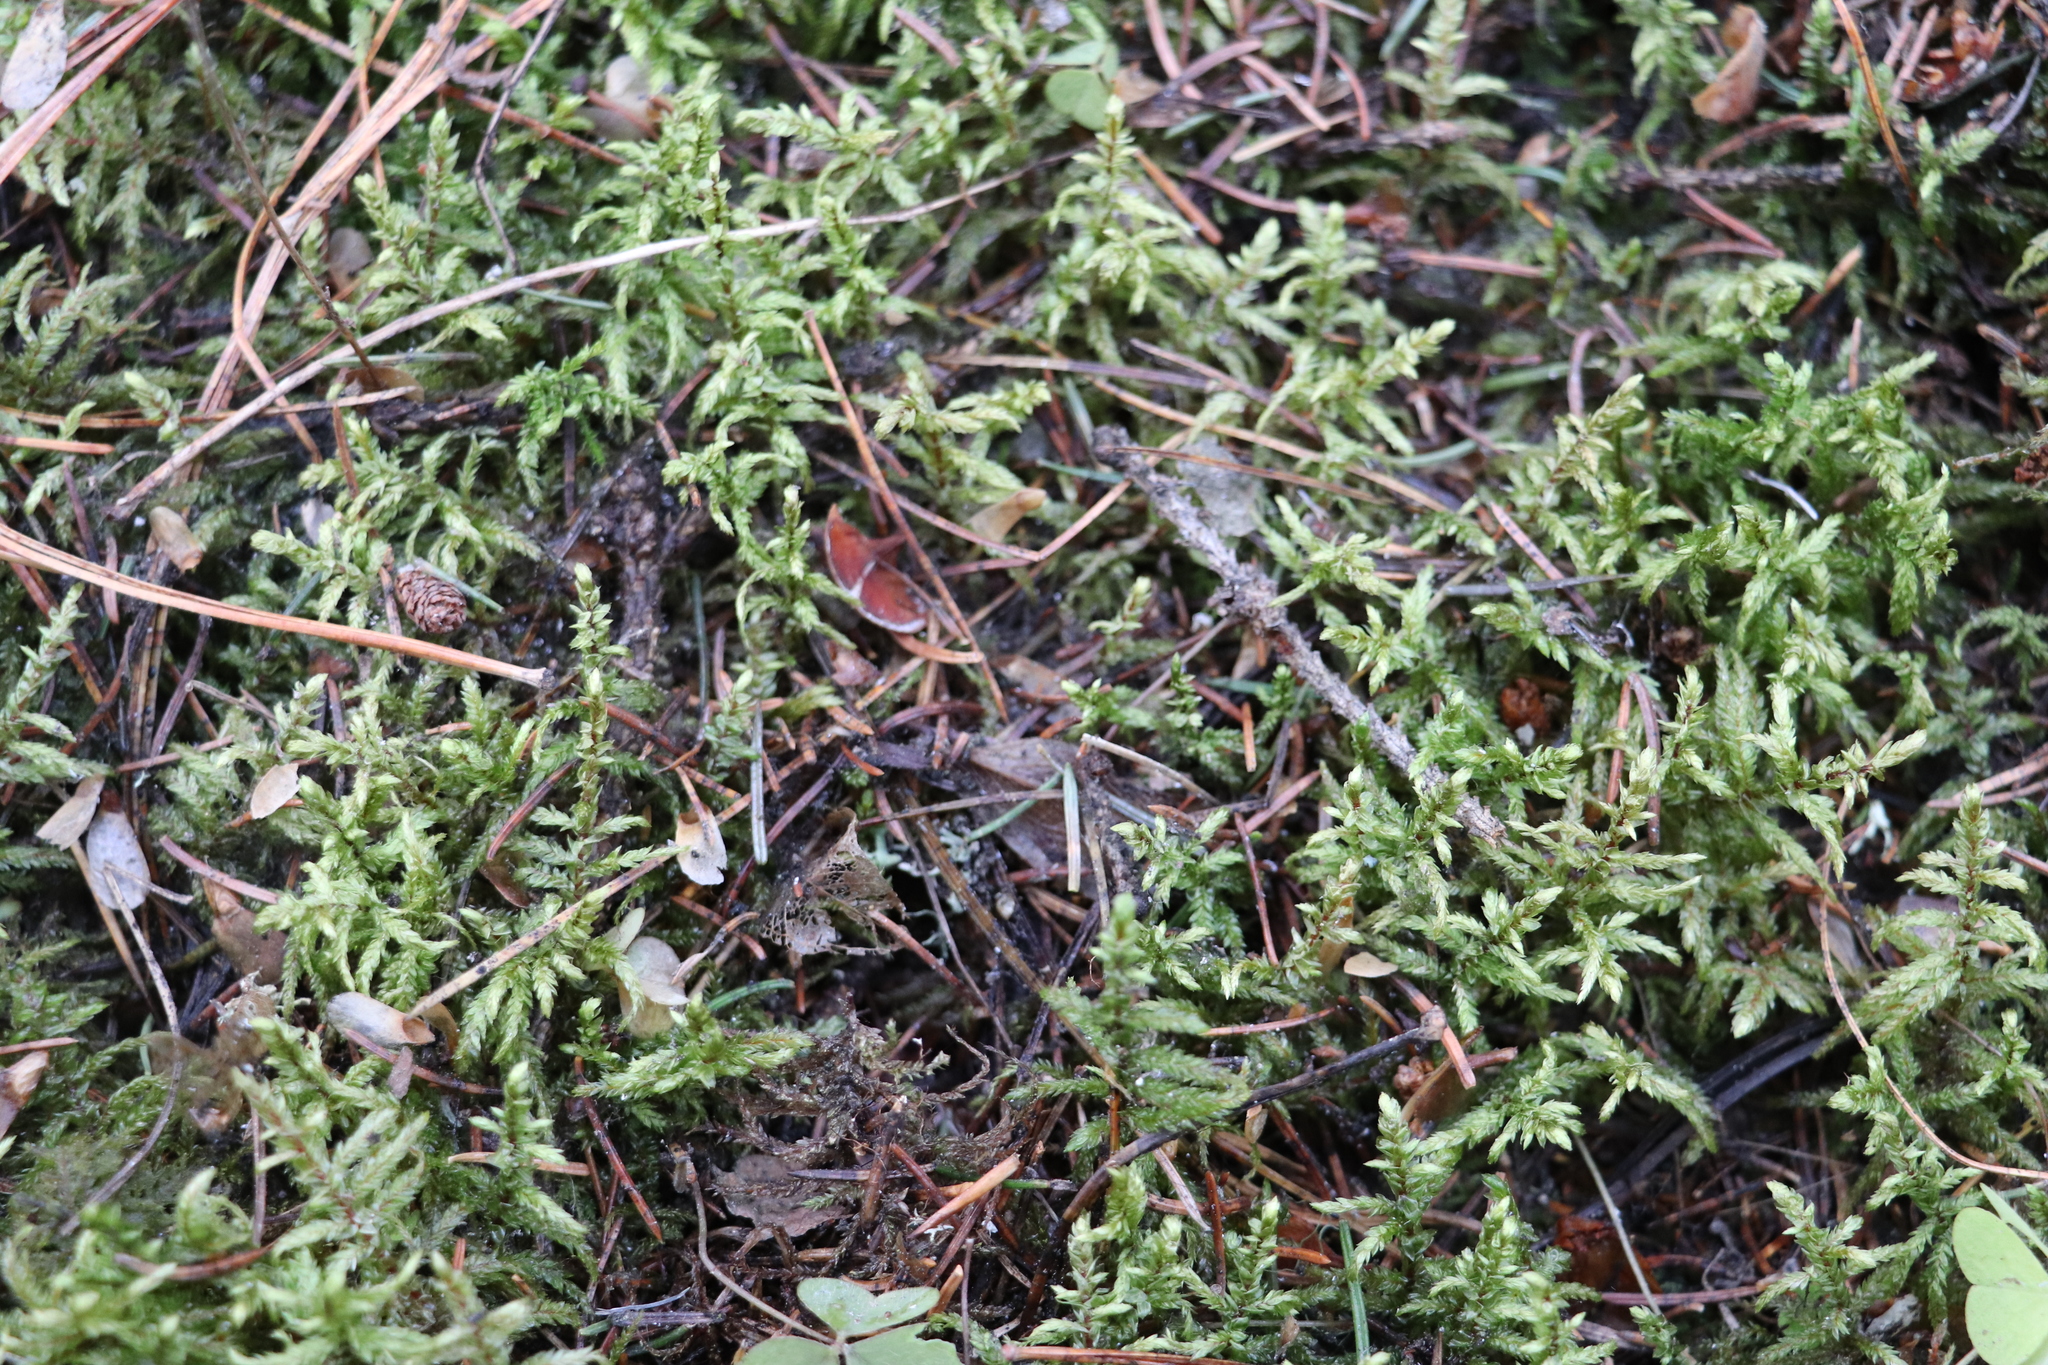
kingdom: Plantae
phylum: Bryophyta
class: Bryopsida
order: Hypnales
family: Hylocomiaceae
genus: Pleurozium
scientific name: Pleurozium schreberi
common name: Red-stemmed feather moss
